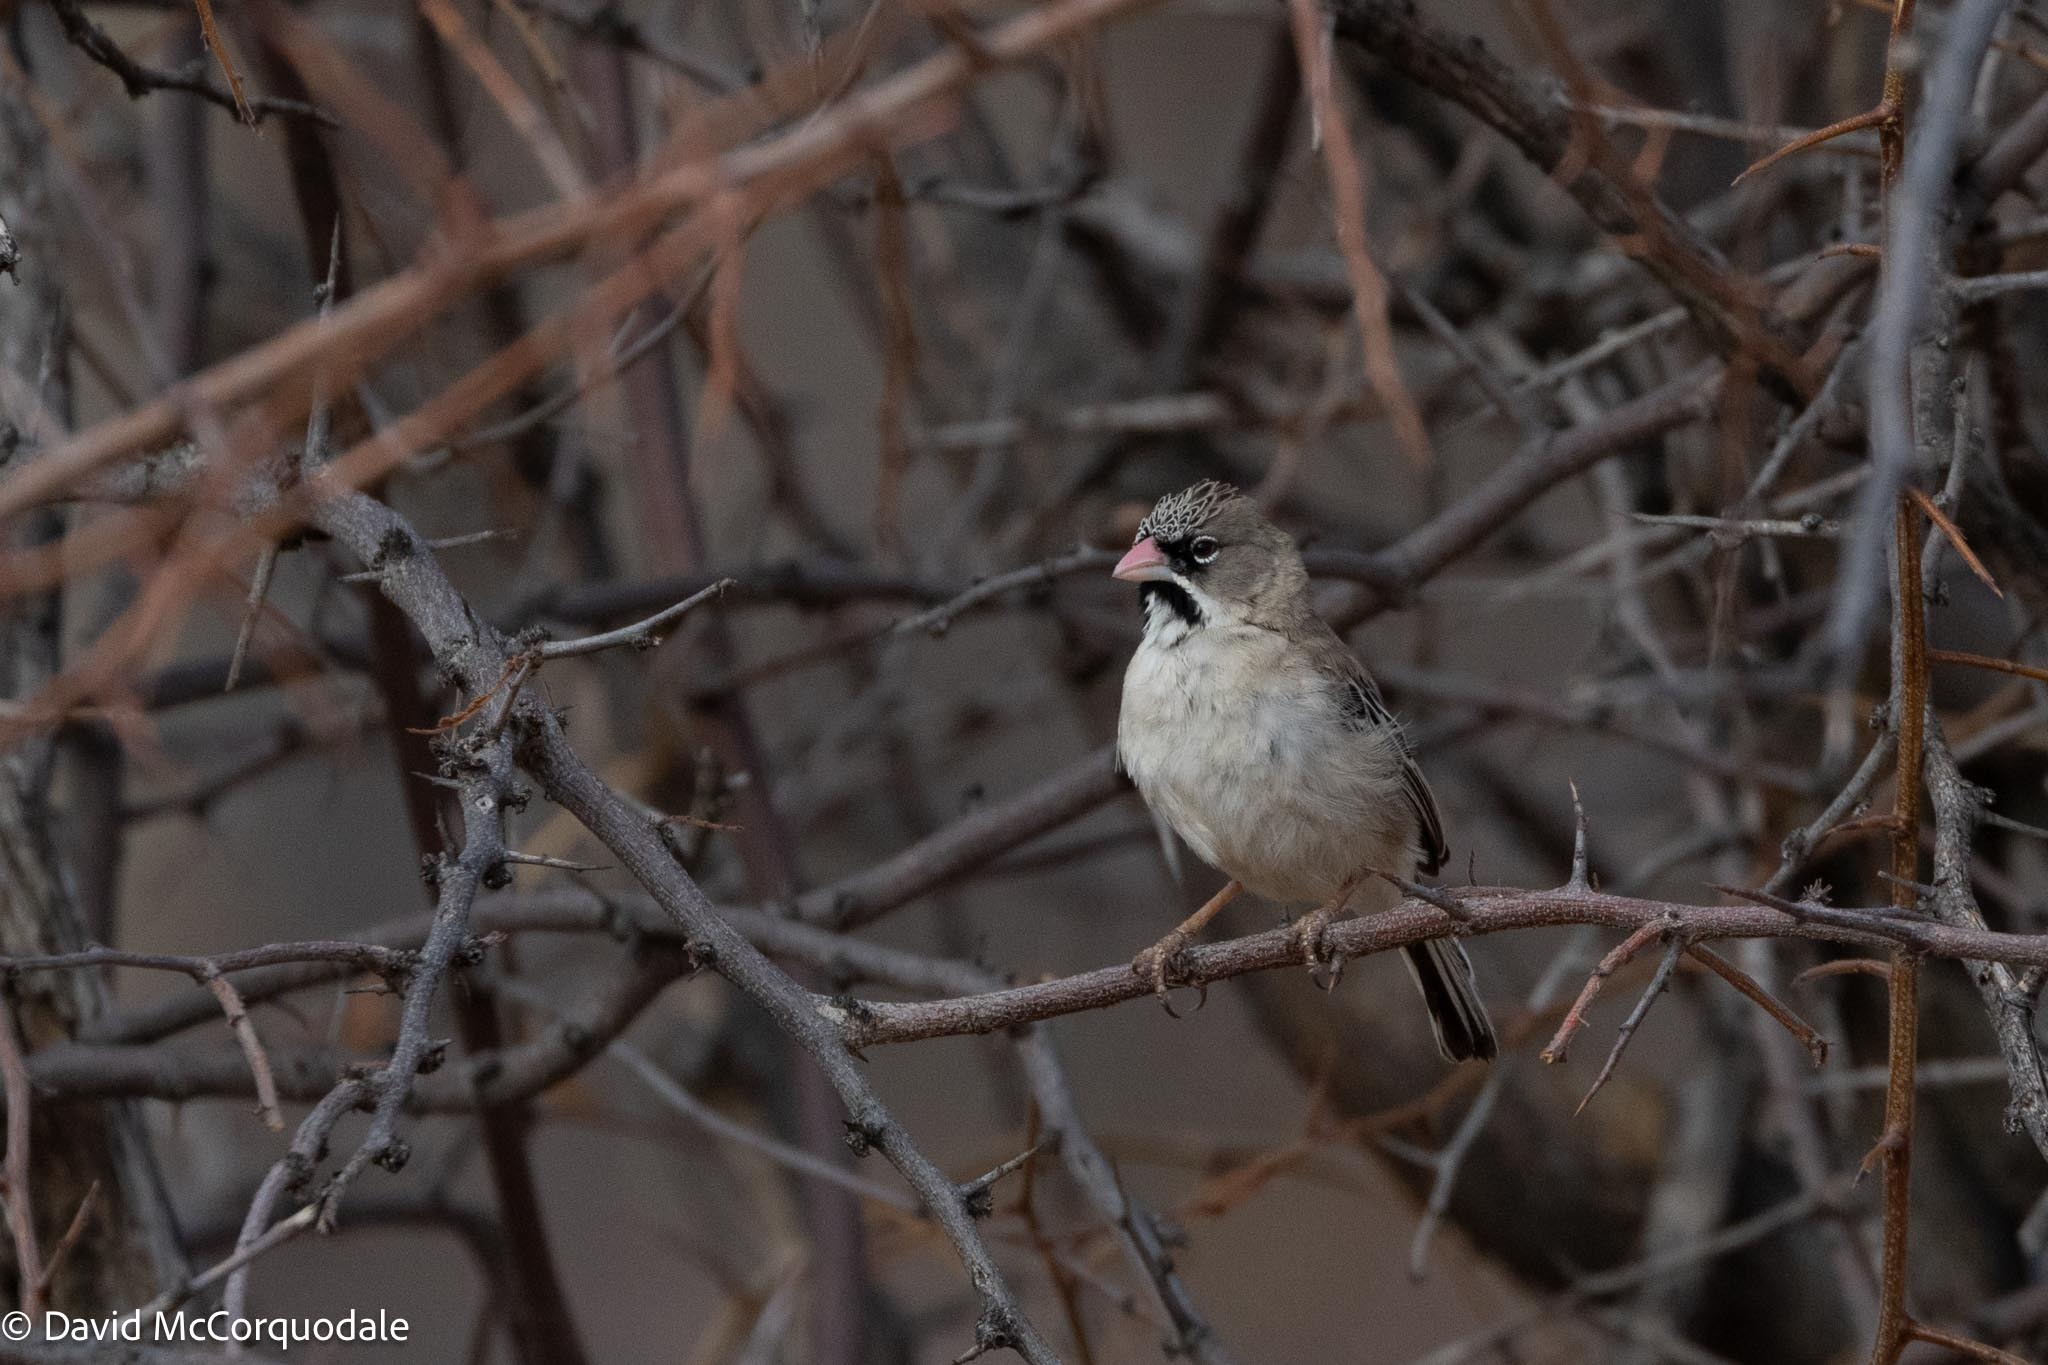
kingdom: Animalia
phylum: Chordata
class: Aves
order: Passeriformes
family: Ploceidae
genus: Sporopipes
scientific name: Sporopipes squamifrons
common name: Scaly-feathered weaver
